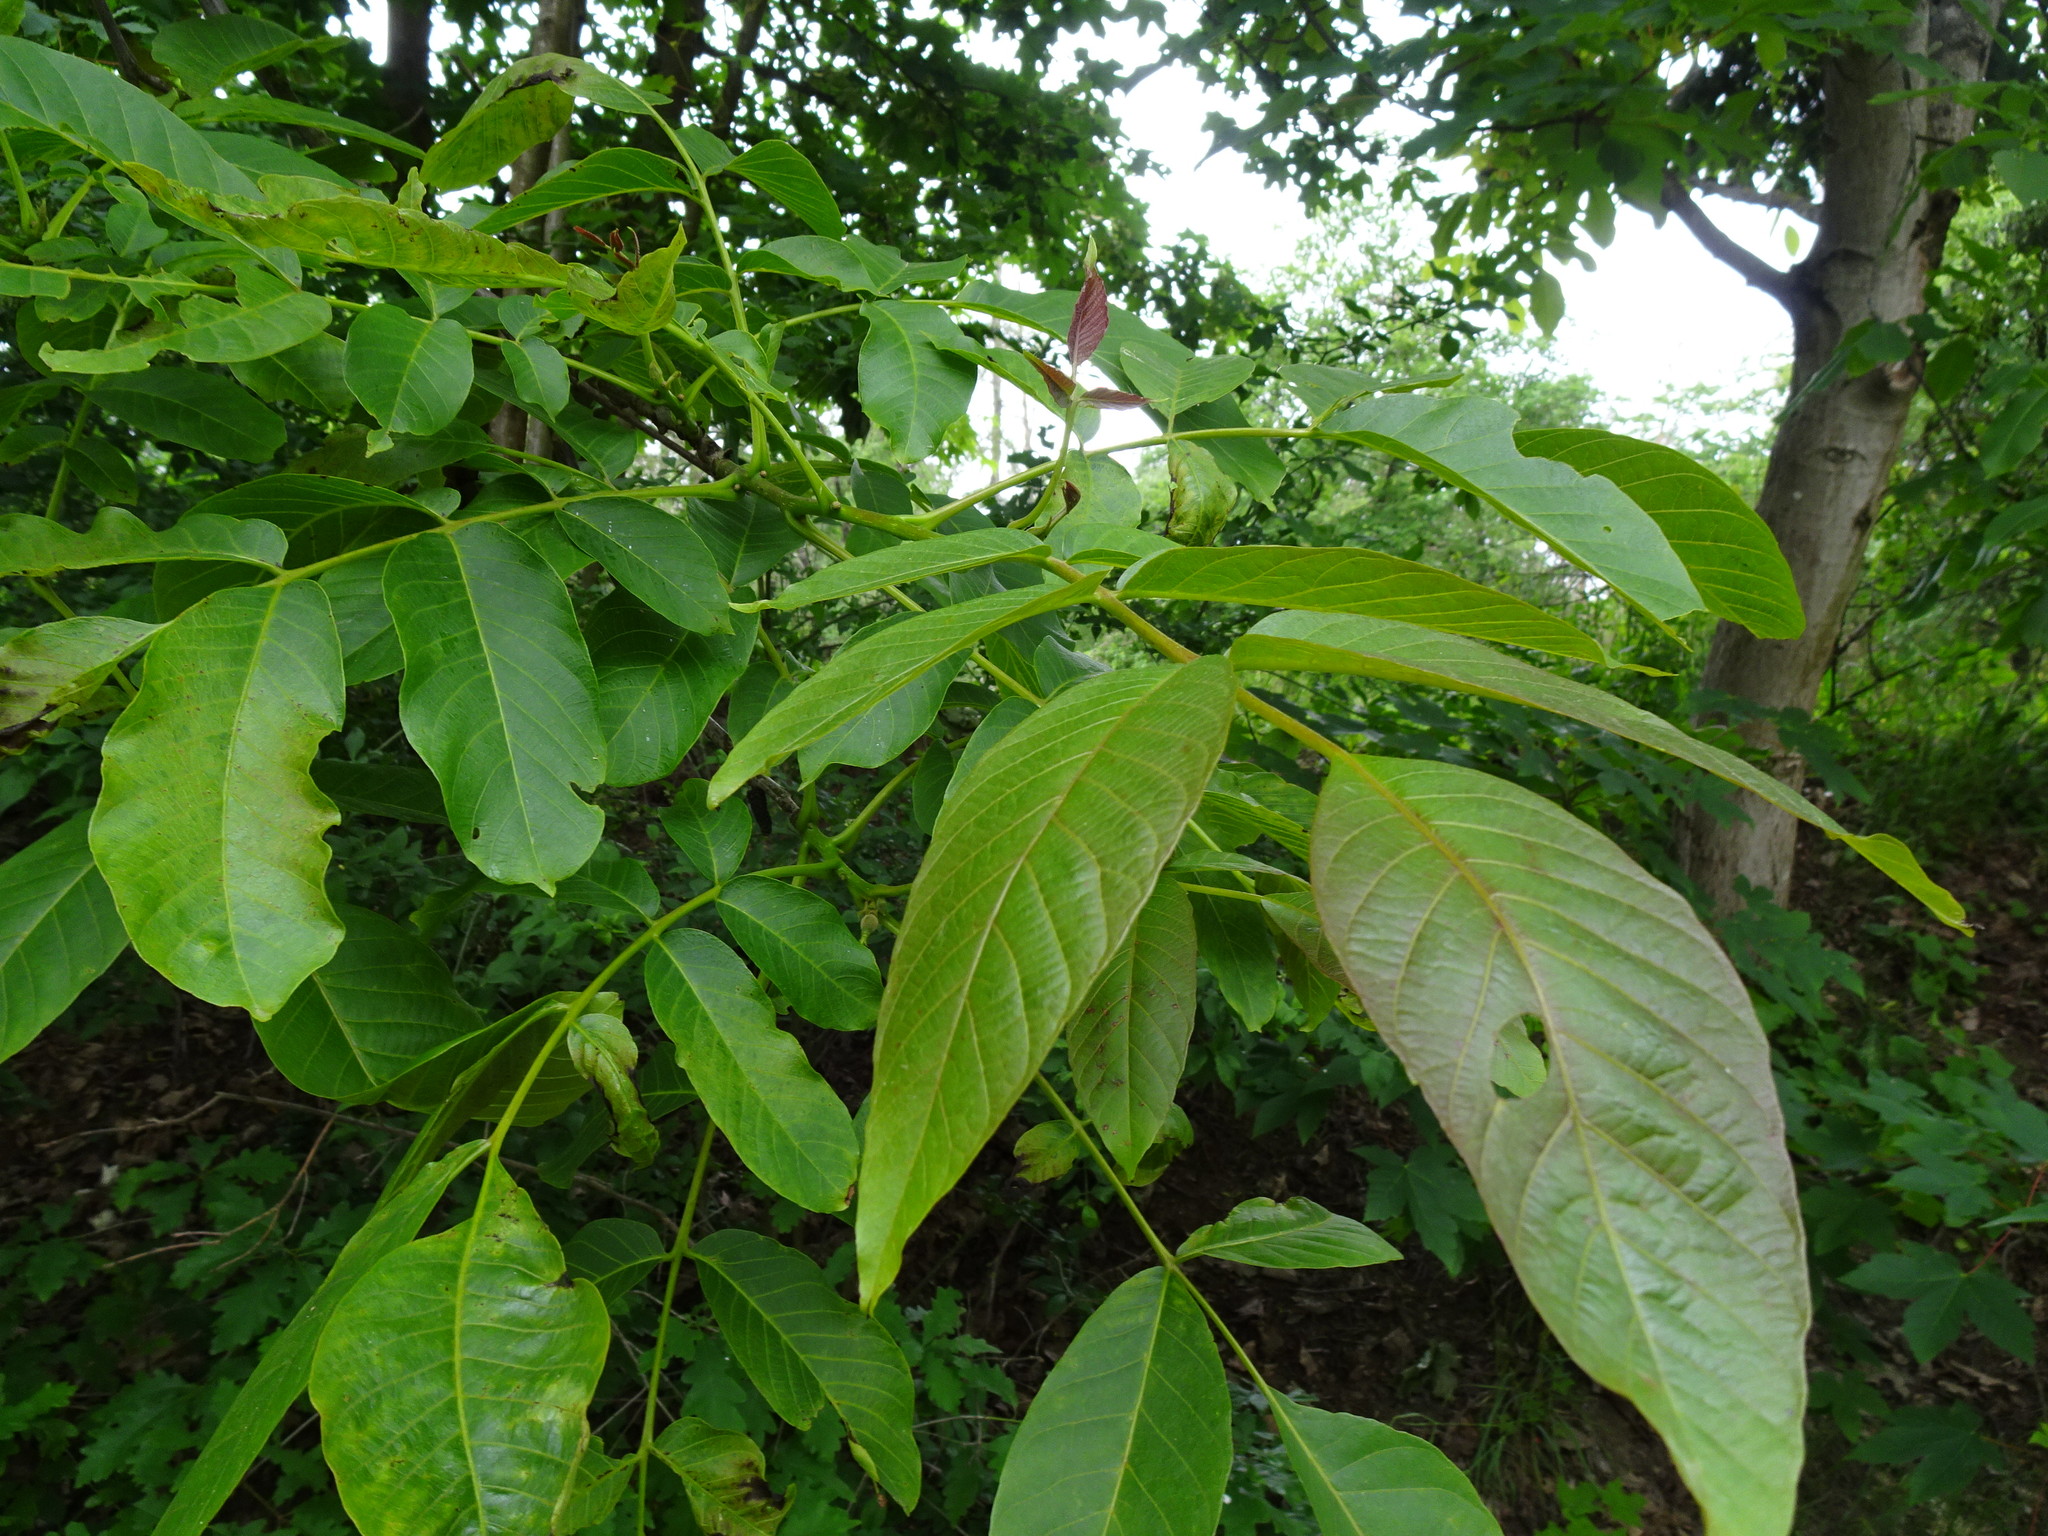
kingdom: Plantae
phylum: Tracheophyta
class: Magnoliopsida
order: Fagales
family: Juglandaceae
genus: Juglans
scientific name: Juglans regia
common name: Walnut
